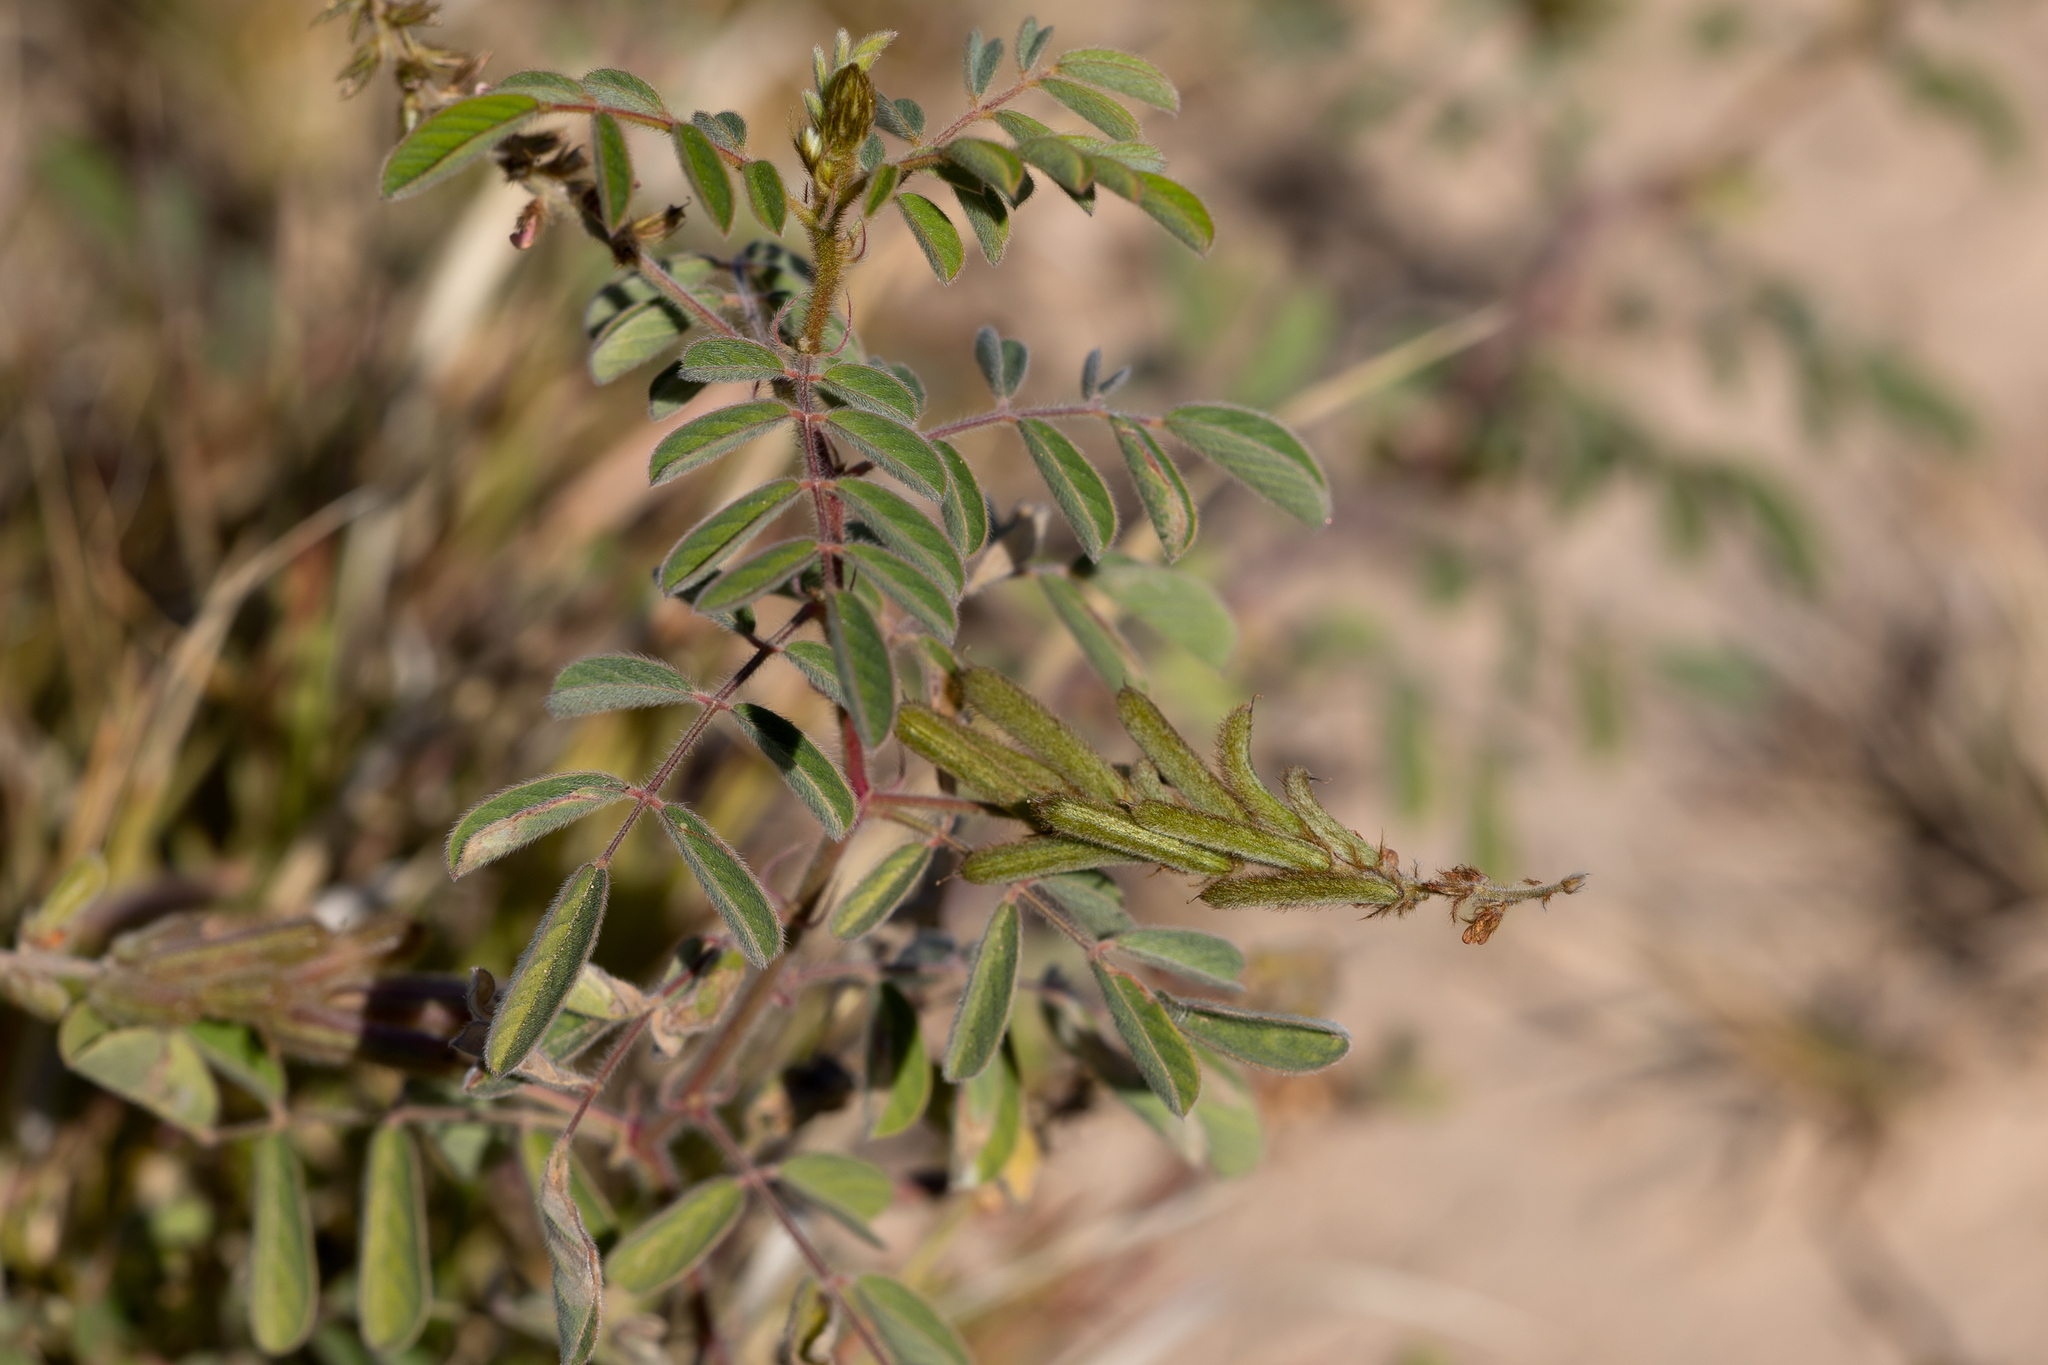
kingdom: Plantae
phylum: Tracheophyta
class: Magnoliopsida
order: Fabales
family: Fabaceae
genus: Indigofera
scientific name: Indigofera hirsuta
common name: Hairy indigo
